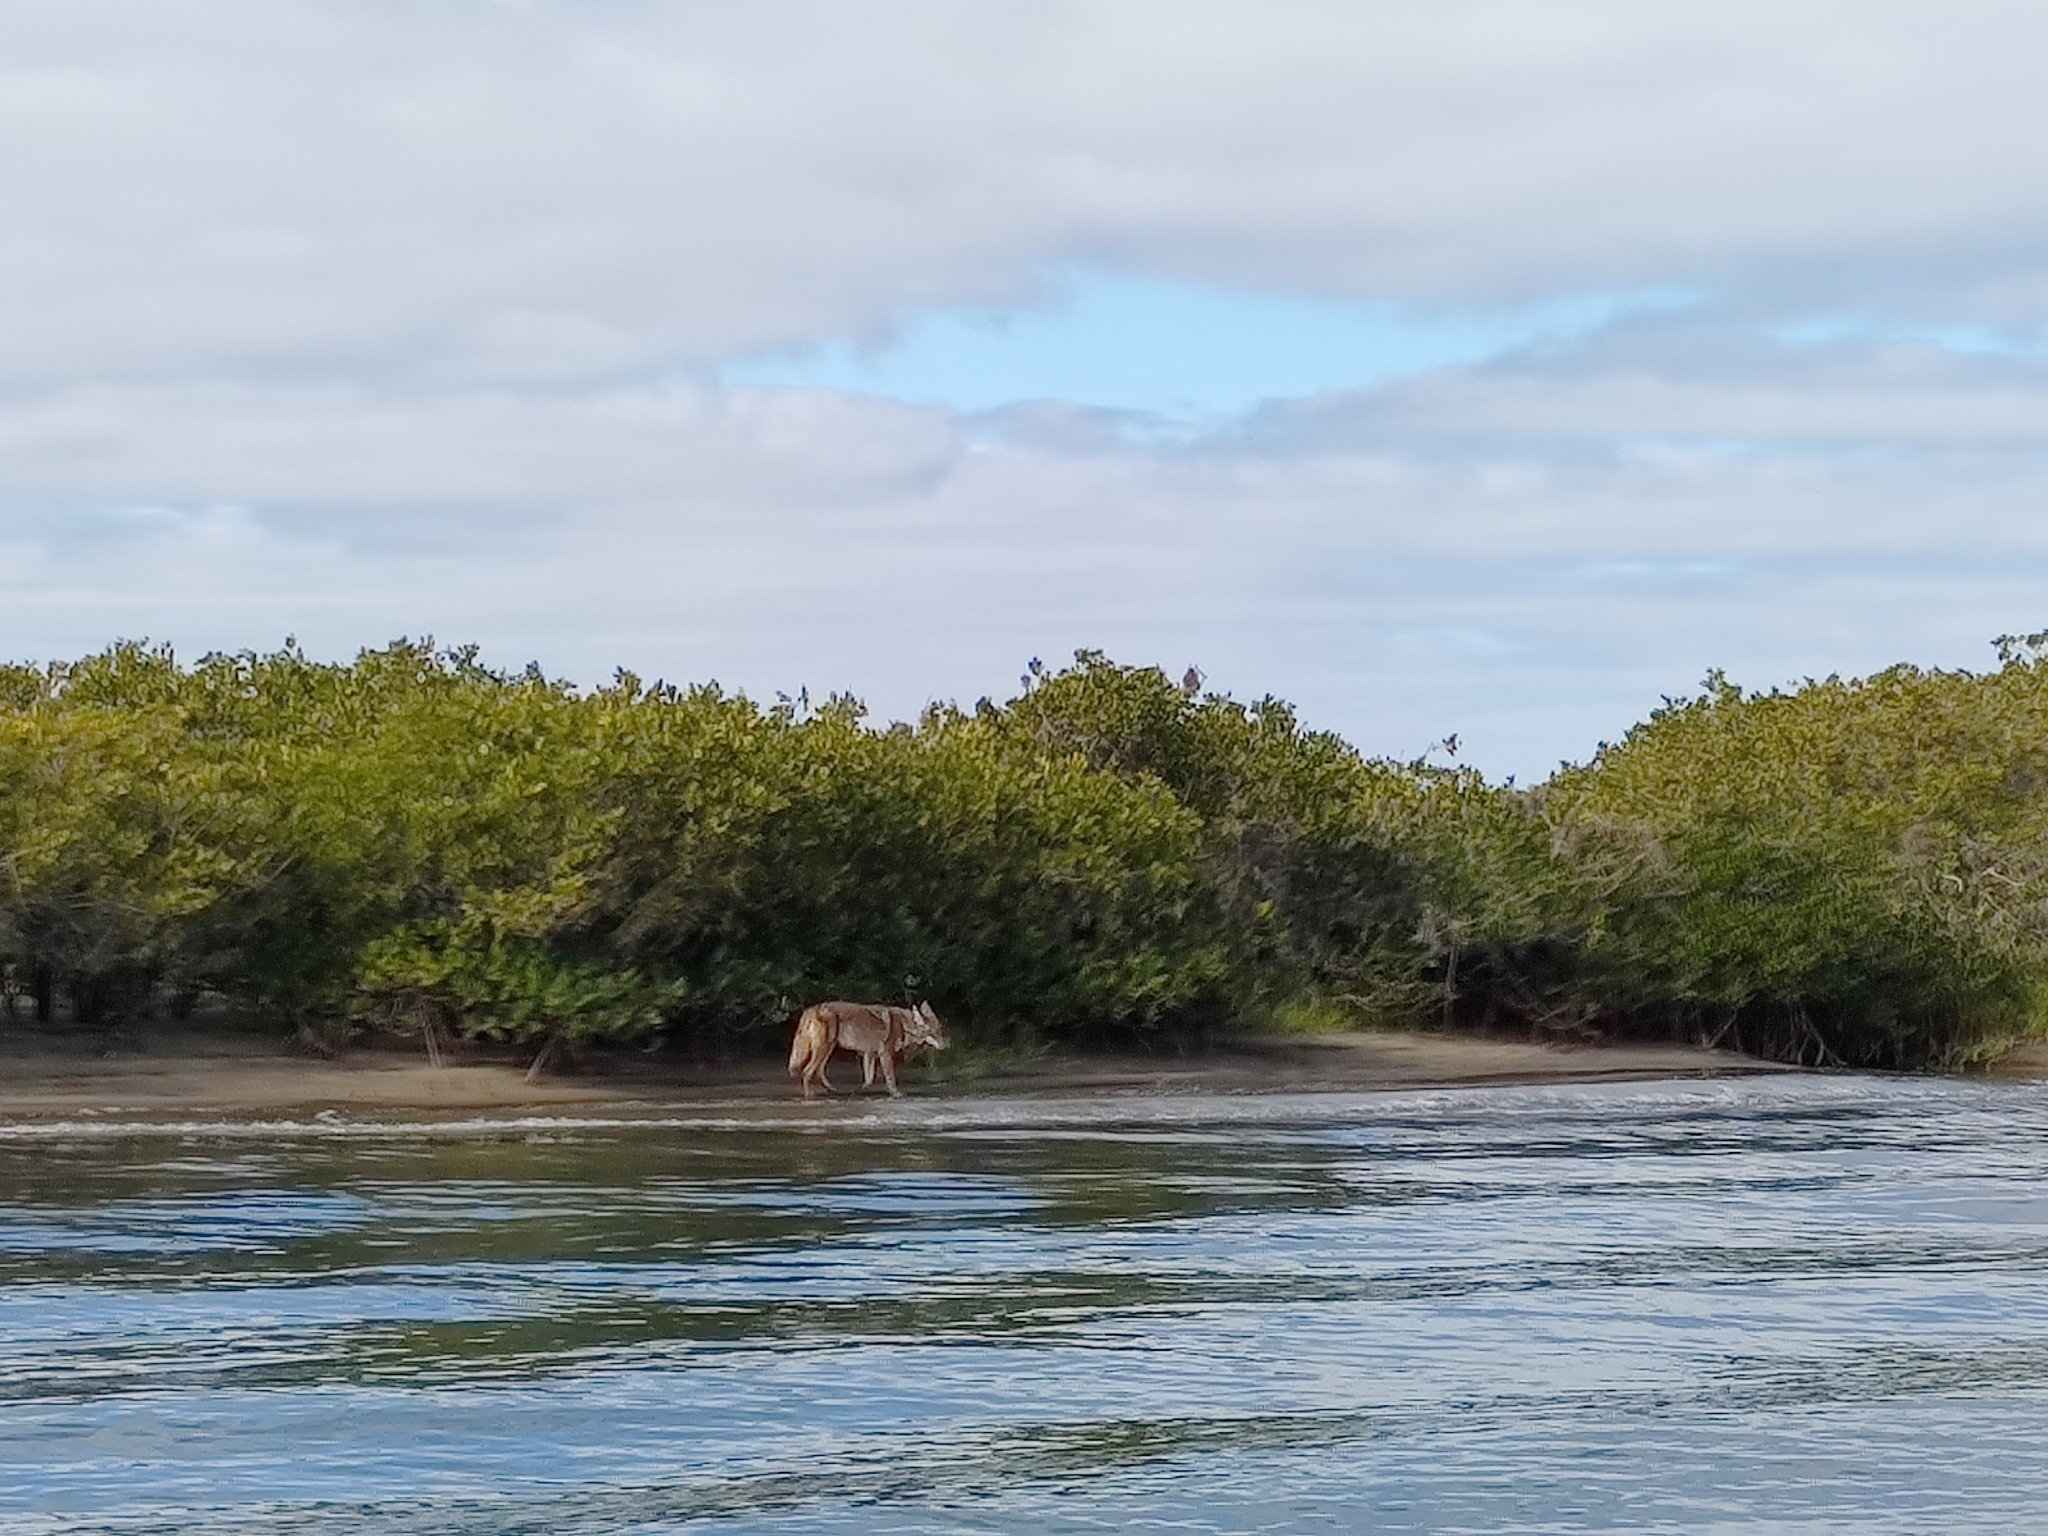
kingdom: Animalia
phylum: Chordata
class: Mammalia
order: Carnivora
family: Canidae
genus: Canis
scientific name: Canis latrans
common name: Coyote
